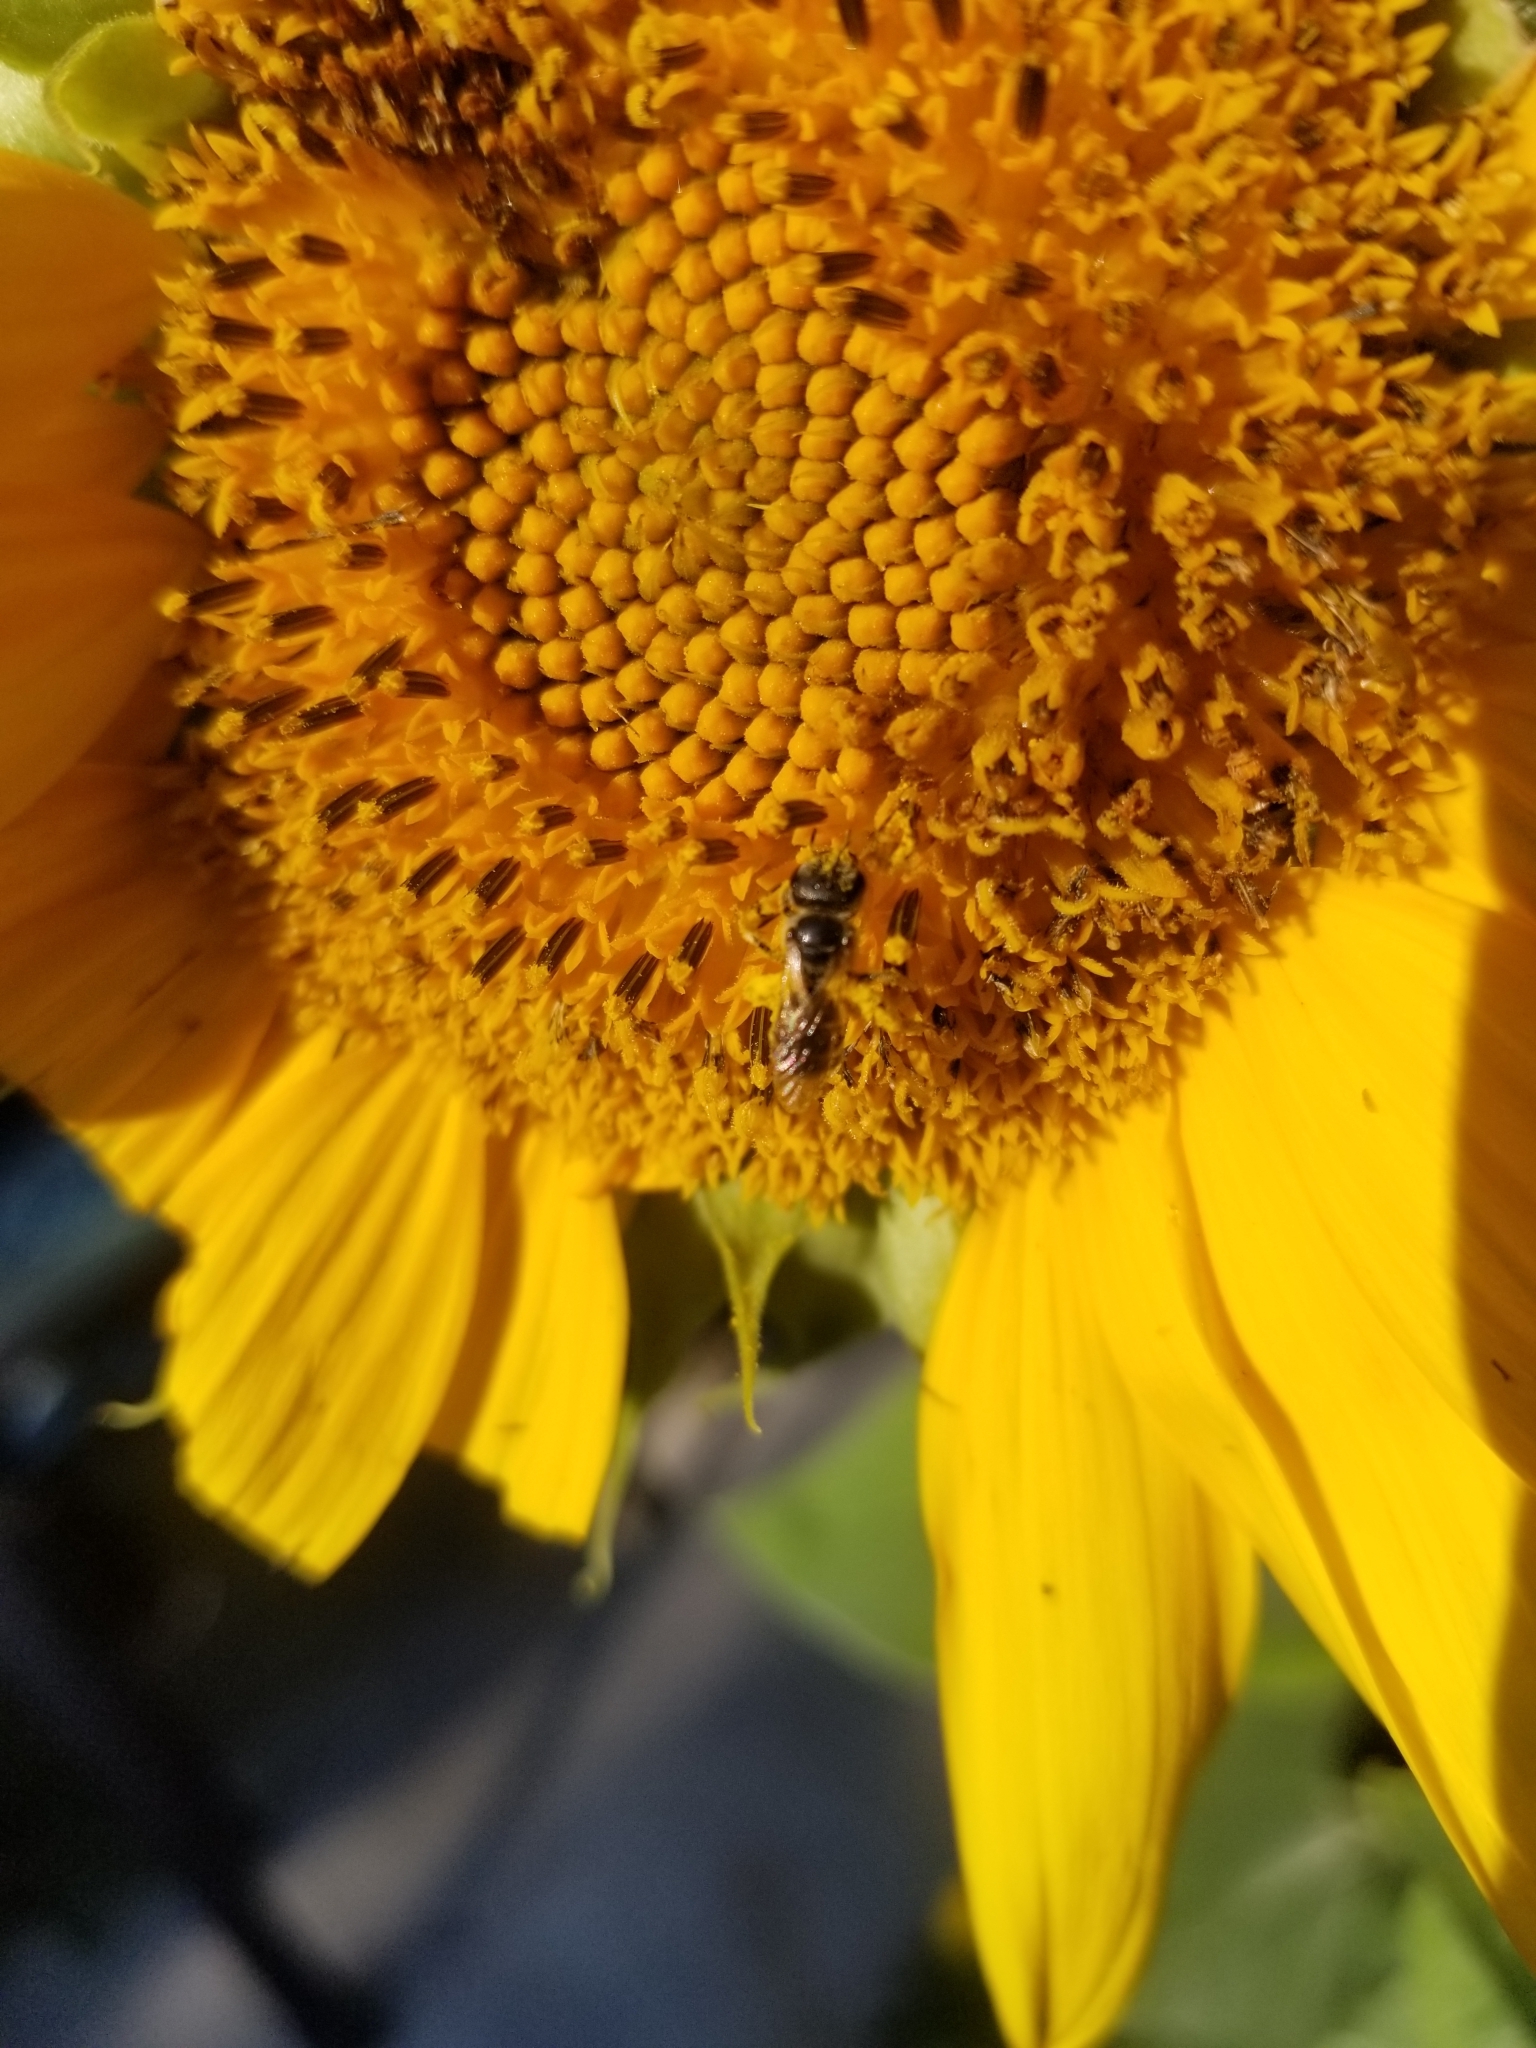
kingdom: Animalia
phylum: Arthropoda
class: Insecta
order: Hymenoptera
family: Halictidae
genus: Halictus
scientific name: Halictus ligatus
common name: Ligated furrow bee
